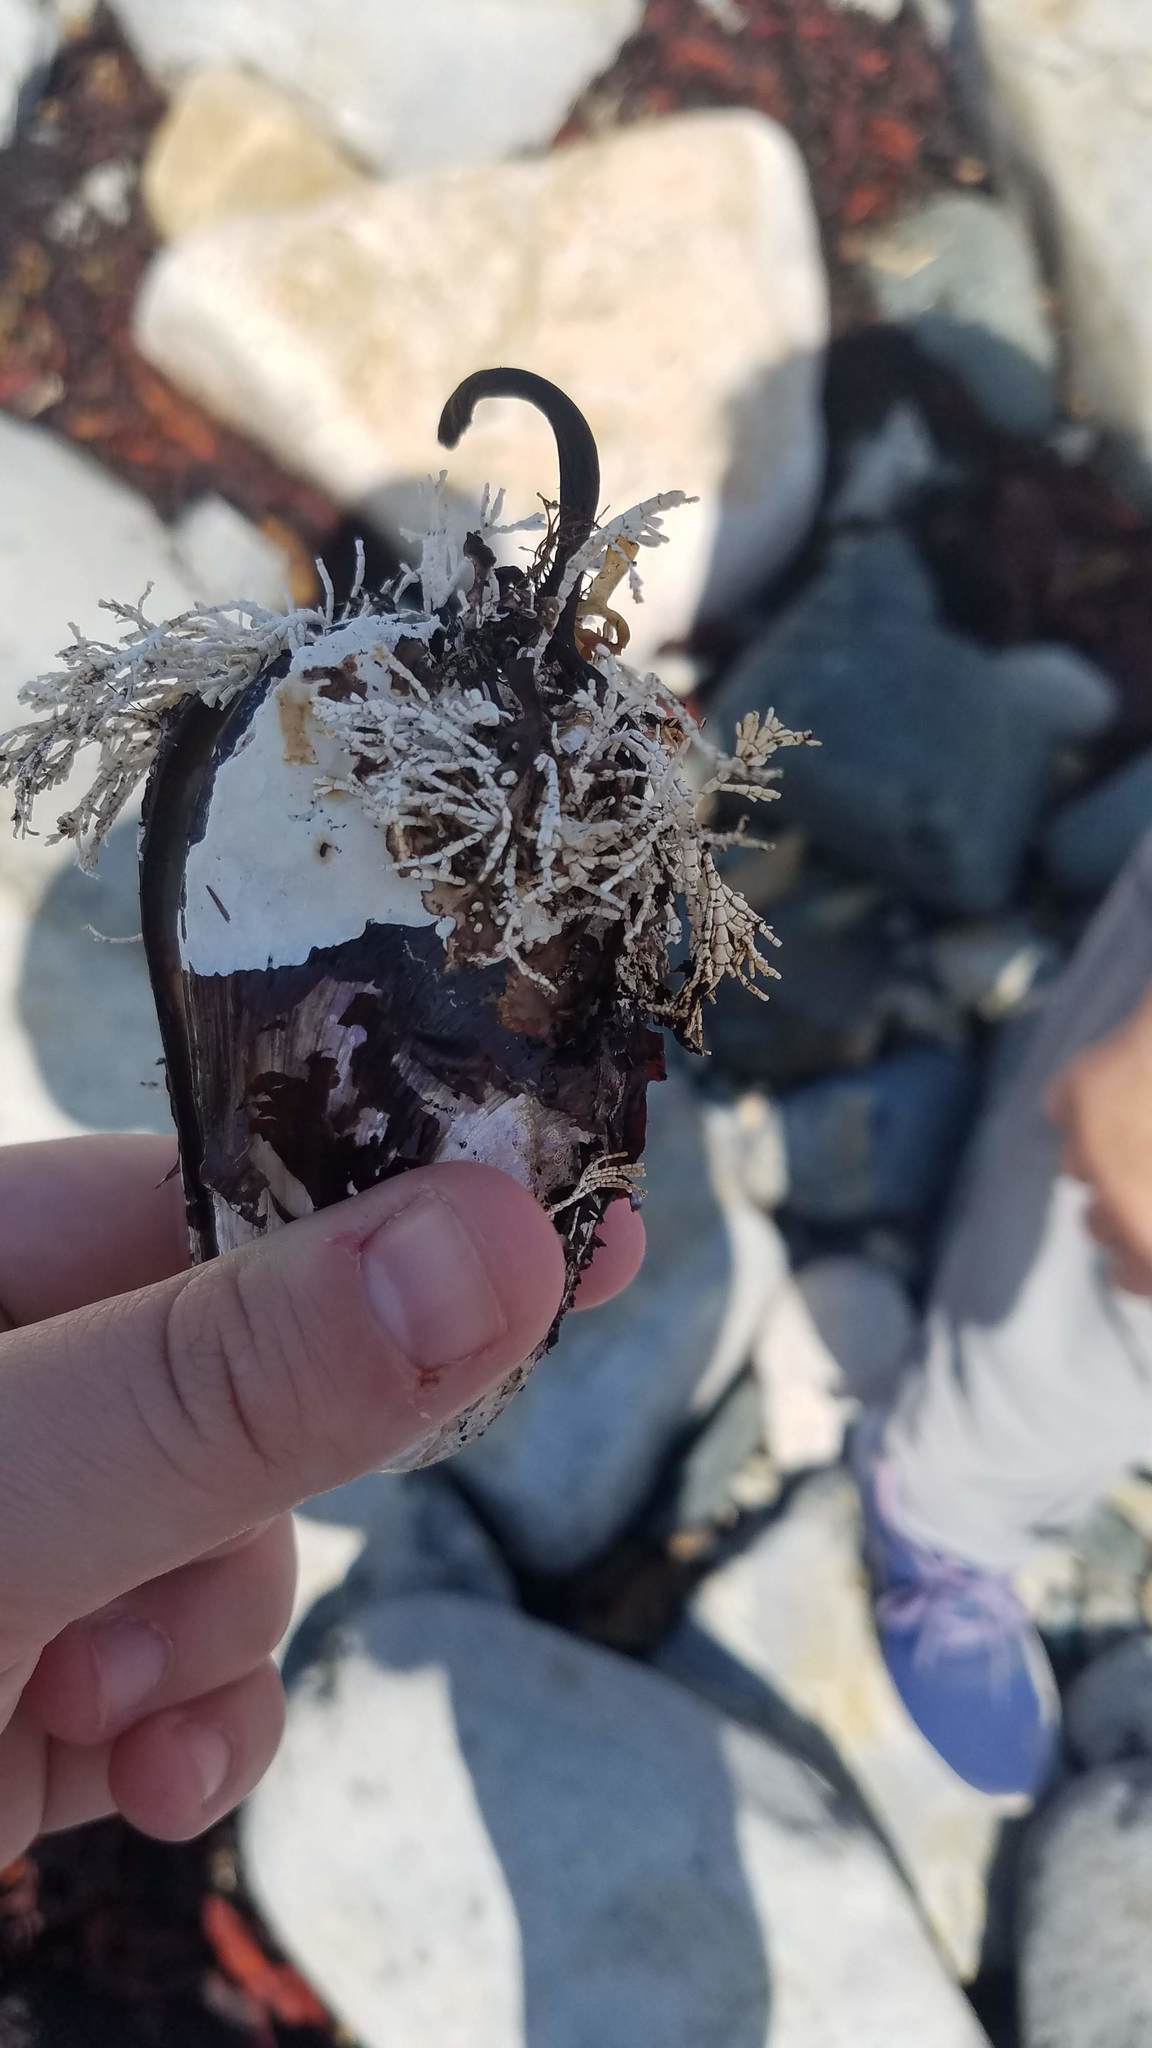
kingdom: Animalia
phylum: Mollusca
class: Bivalvia
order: Mytilida
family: Mytilidae
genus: Modiolus
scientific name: Modiolus modiolus
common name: Horse-mussel
